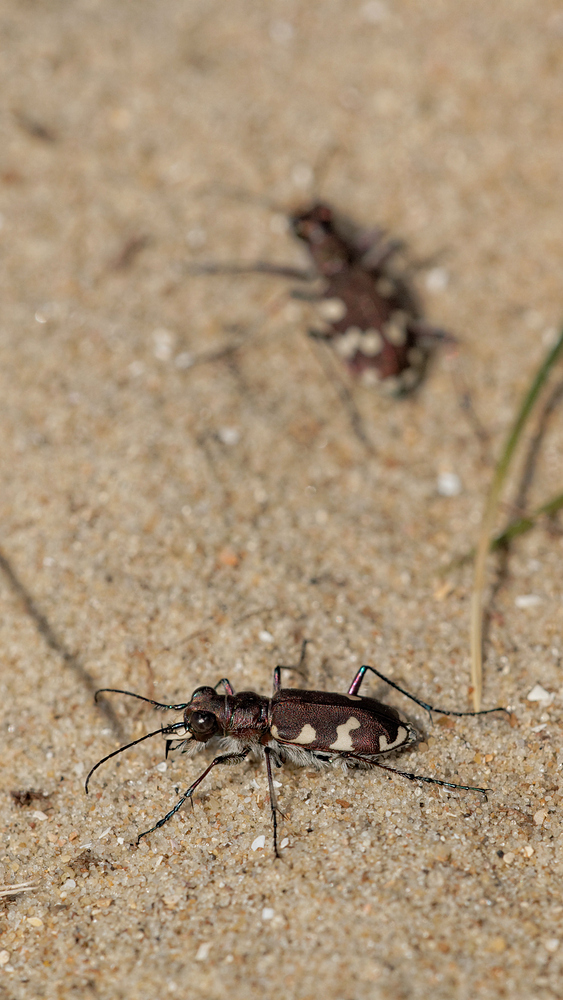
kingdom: Animalia
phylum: Arthropoda
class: Insecta
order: Coleoptera
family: Carabidae
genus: Cicindela
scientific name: Cicindela hybrida
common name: Northern dune tiger beetle
